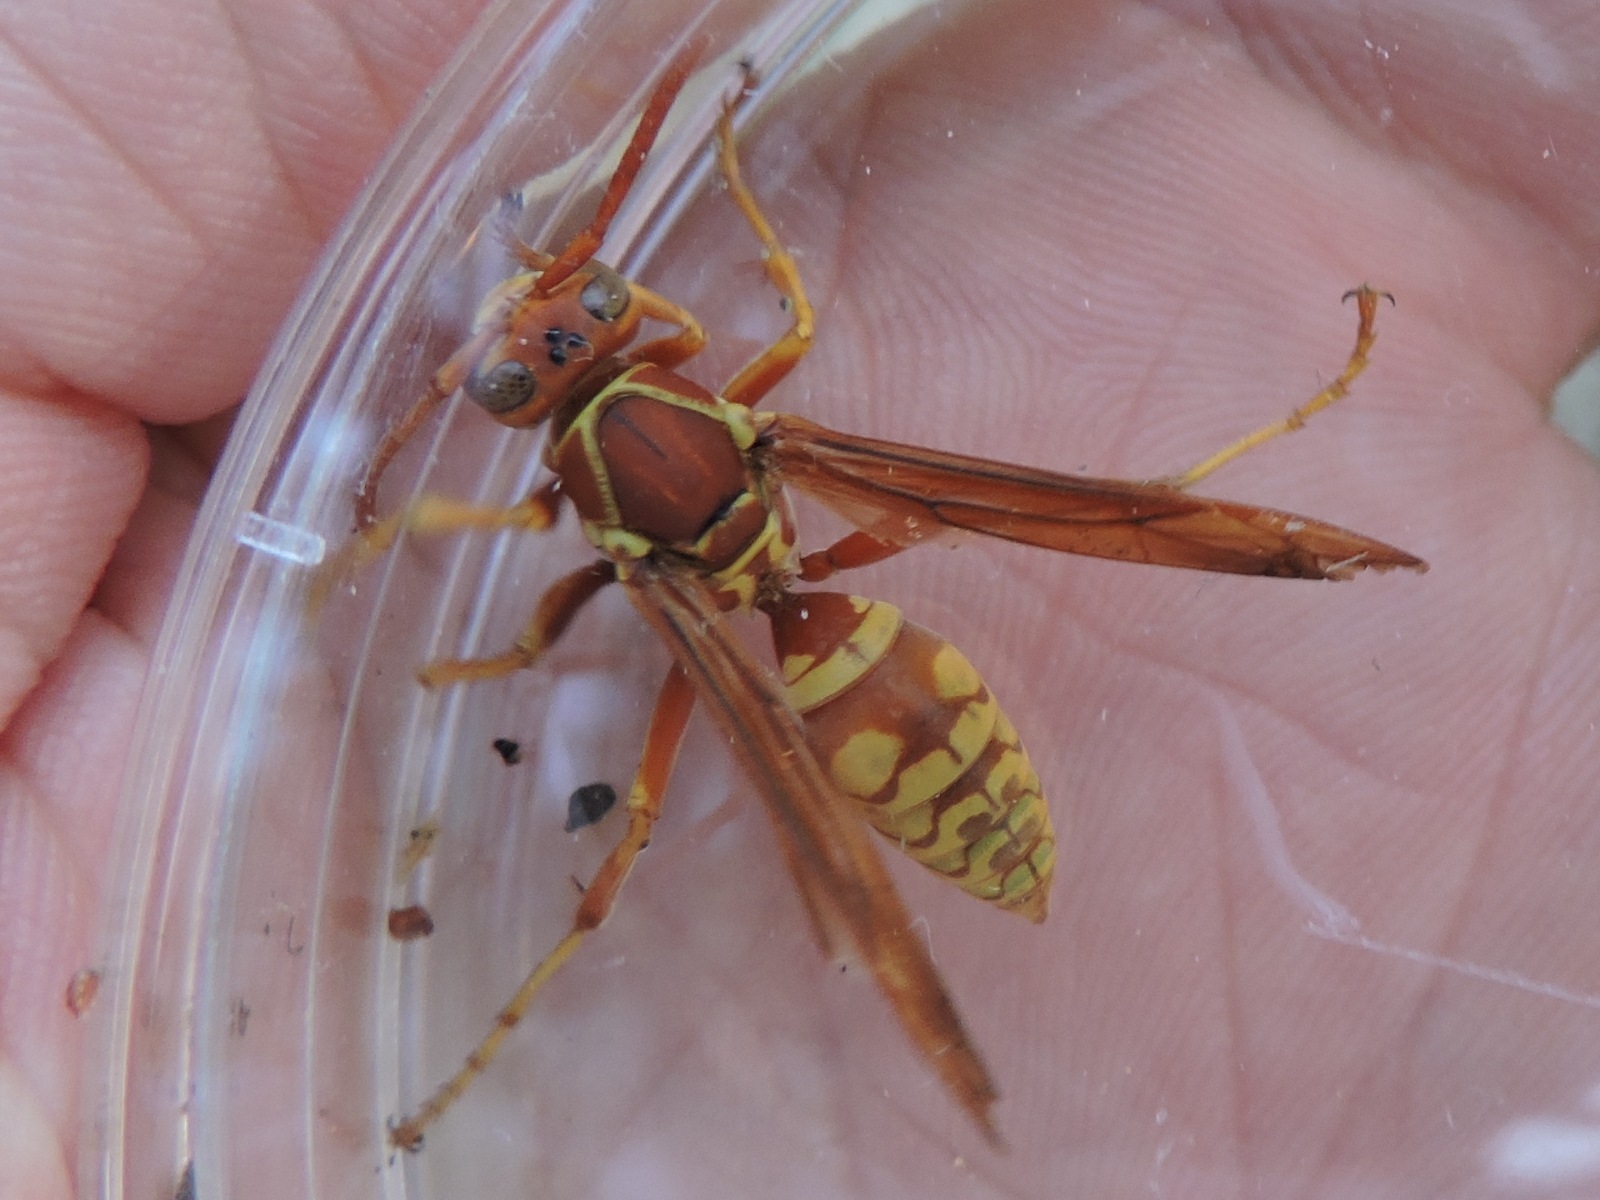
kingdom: Animalia
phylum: Arthropoda
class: Insecta
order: Hymenoptera
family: Eumenidae
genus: Polistes
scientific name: Polistes apachus
